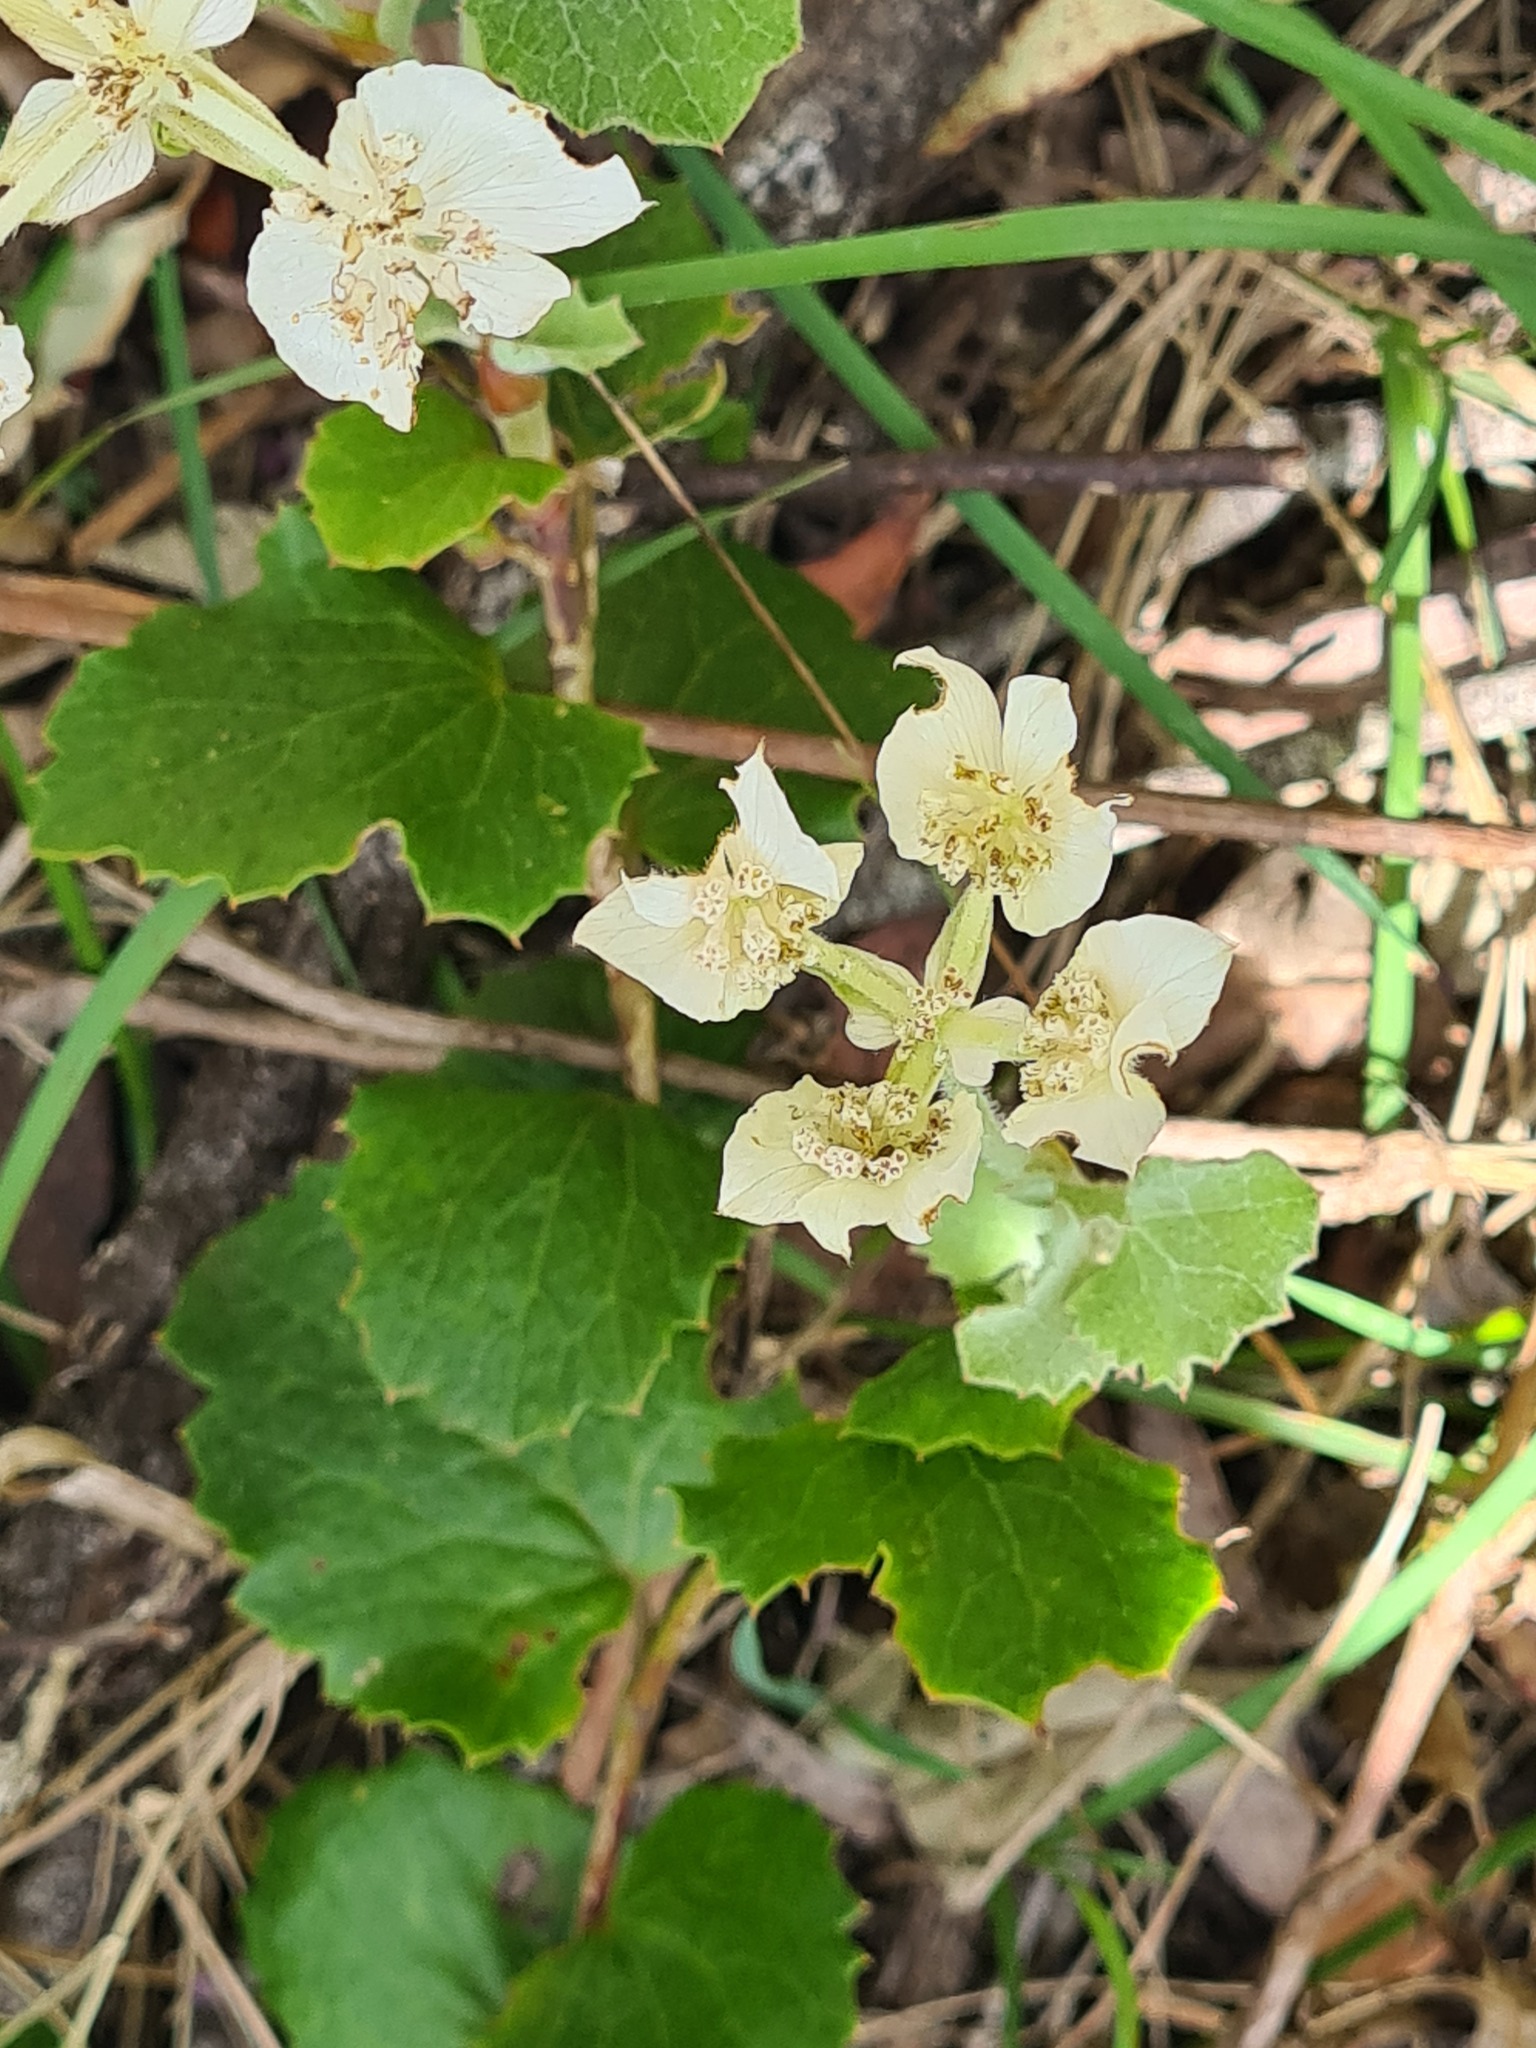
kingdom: Plantae
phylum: Tracheophyta
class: Magnoliopsida
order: Apiales
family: Apiaceae
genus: Xanthosia
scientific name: Xanthosia rotundifolia
